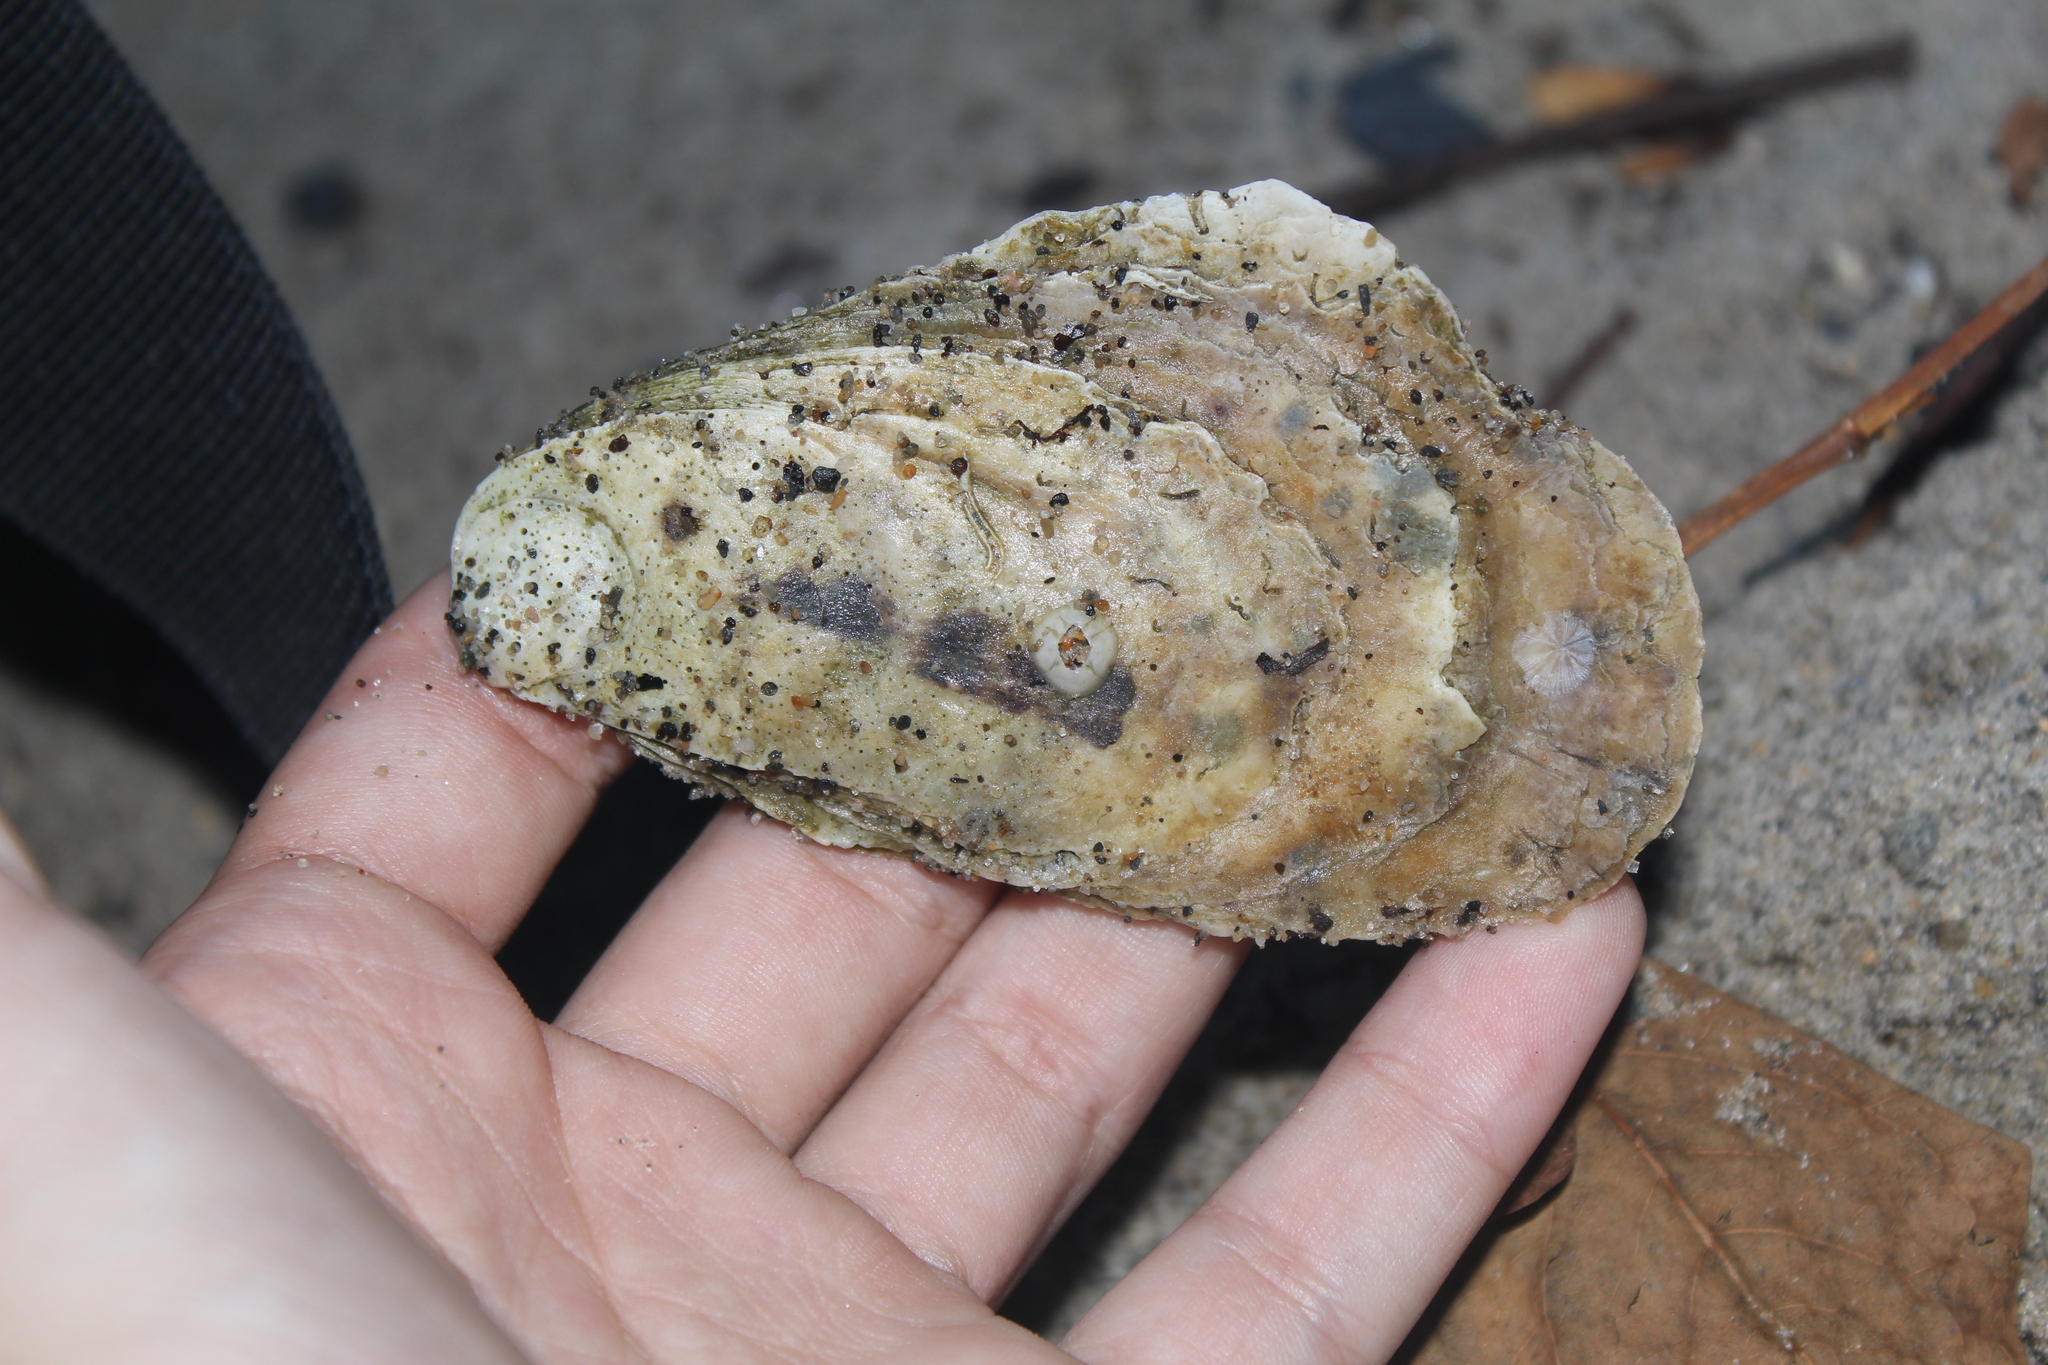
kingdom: Animalia
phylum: Mollusca
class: Bivalvia
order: Ostreida
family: Ostreidae
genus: Crassostrea
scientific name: Crassostrea virginica
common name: American oyster
